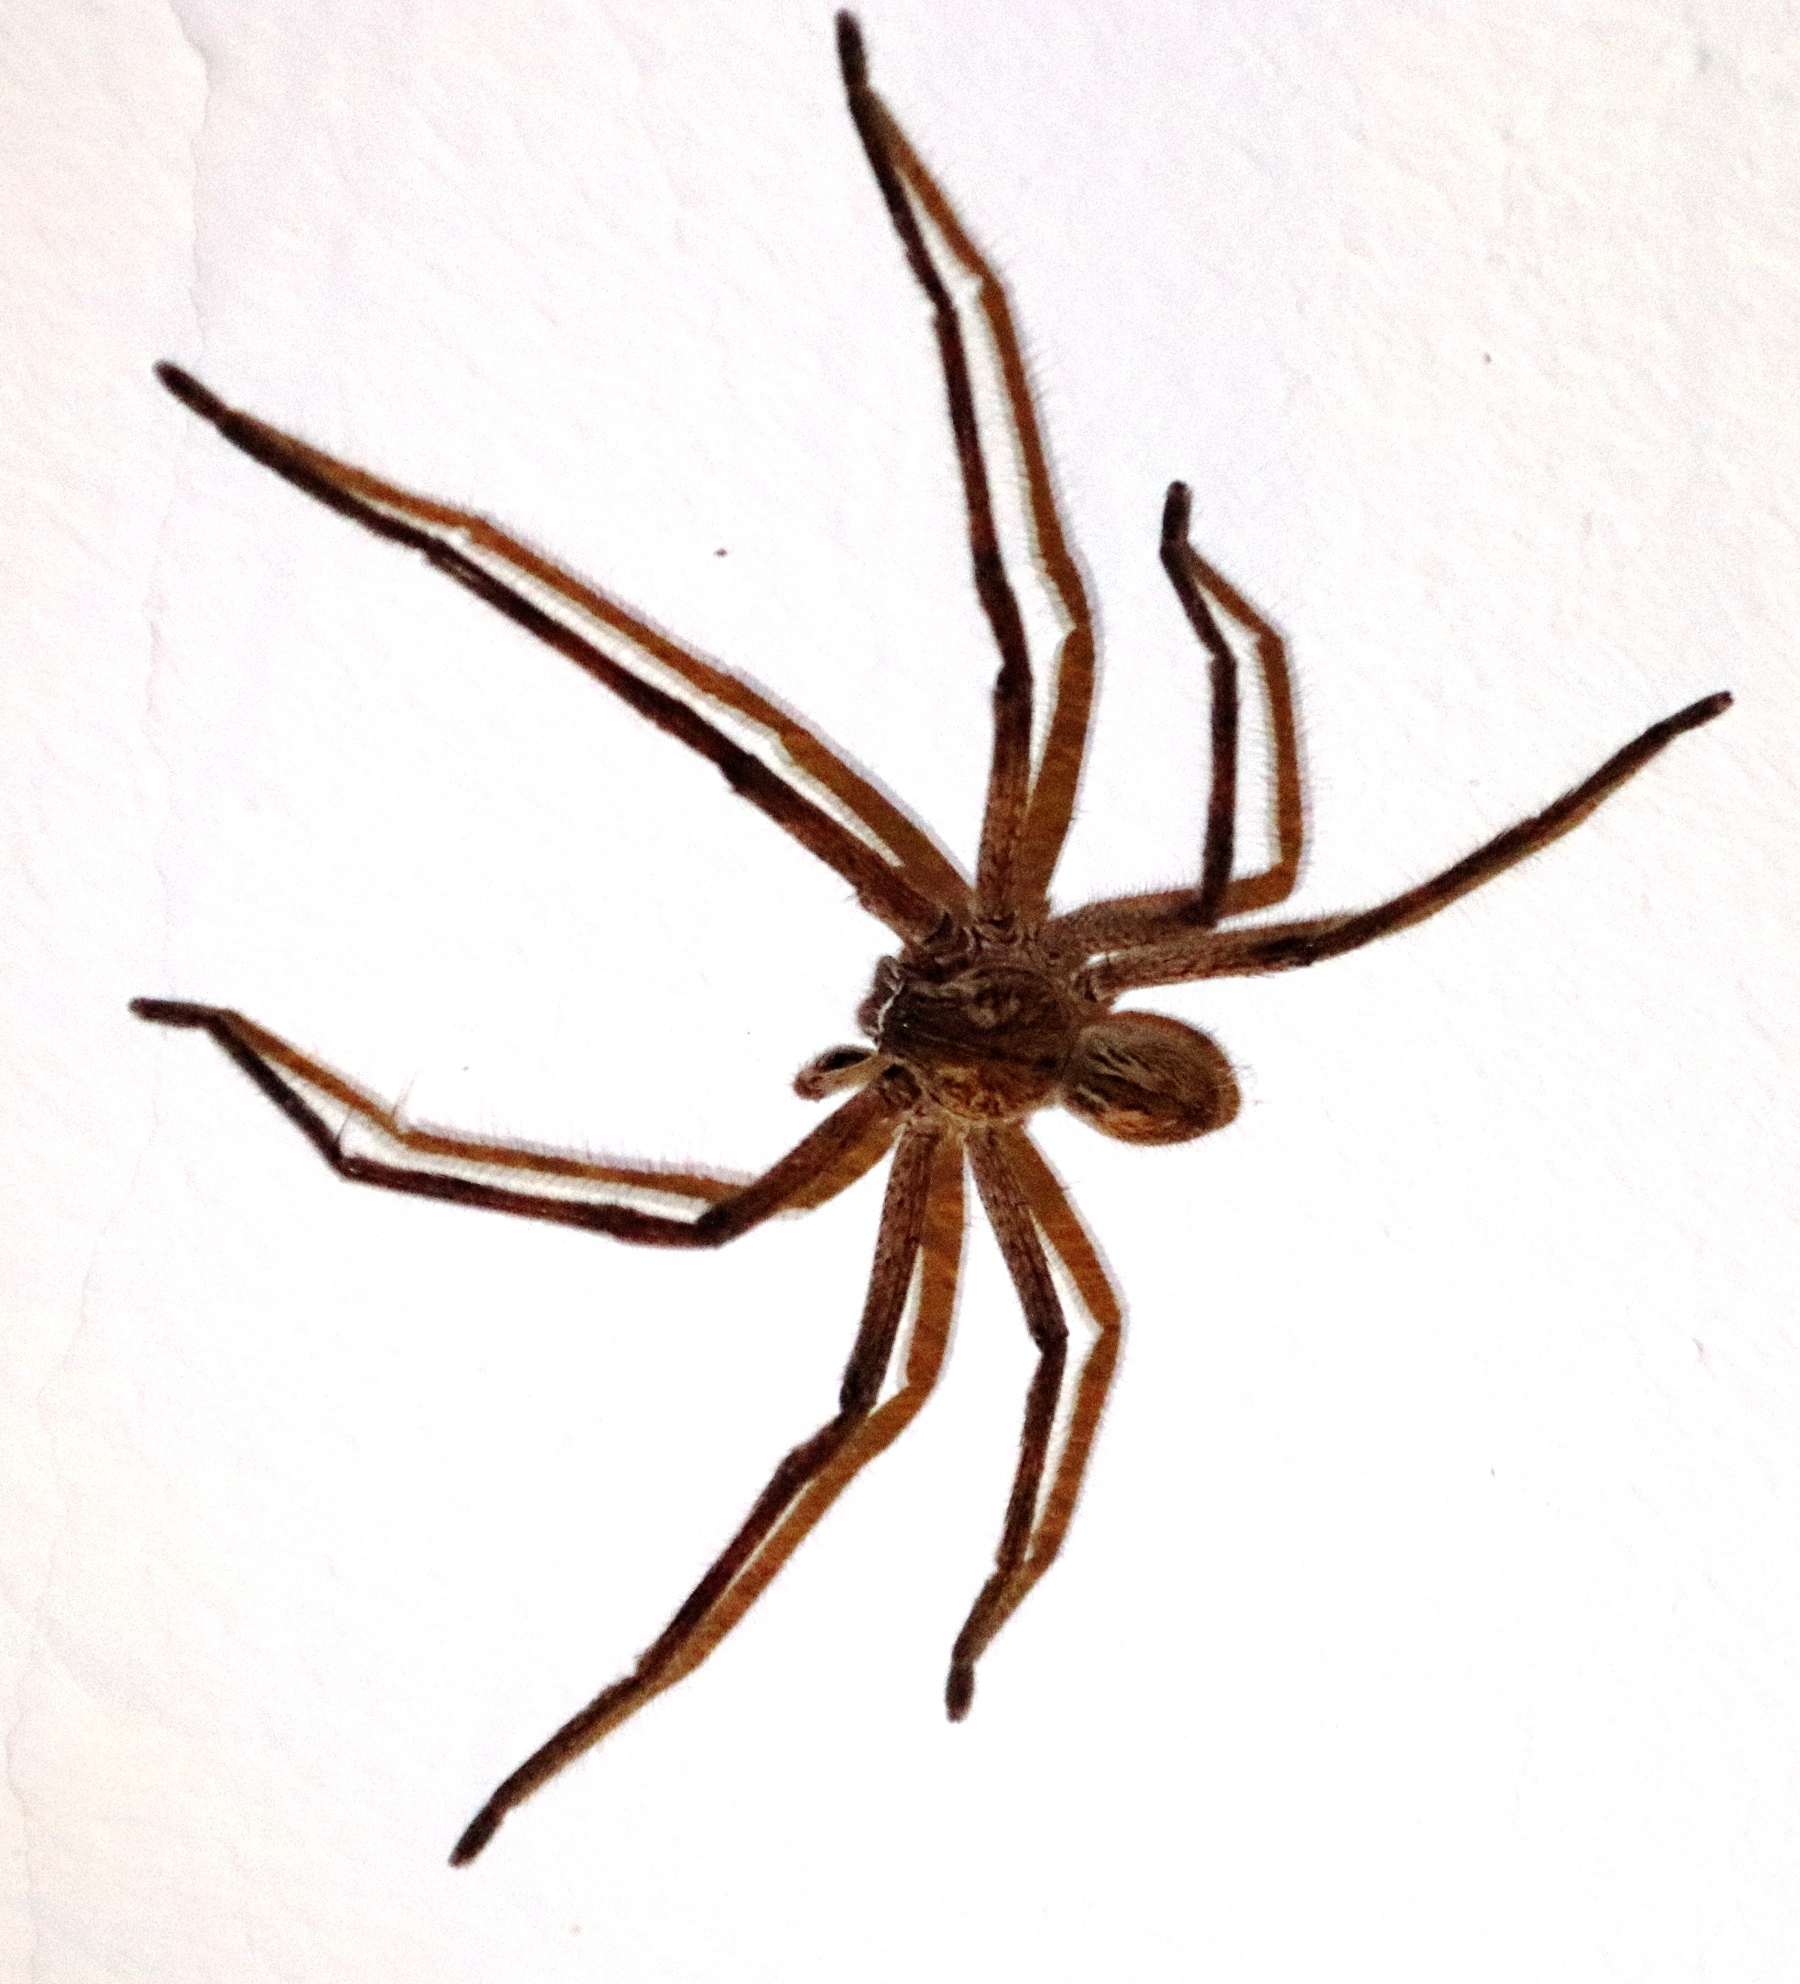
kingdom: Animalia
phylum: Arthropoda
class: Arachnida
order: Araneae
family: Sparassidae
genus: Palystes
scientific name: Palystes superciliosus
